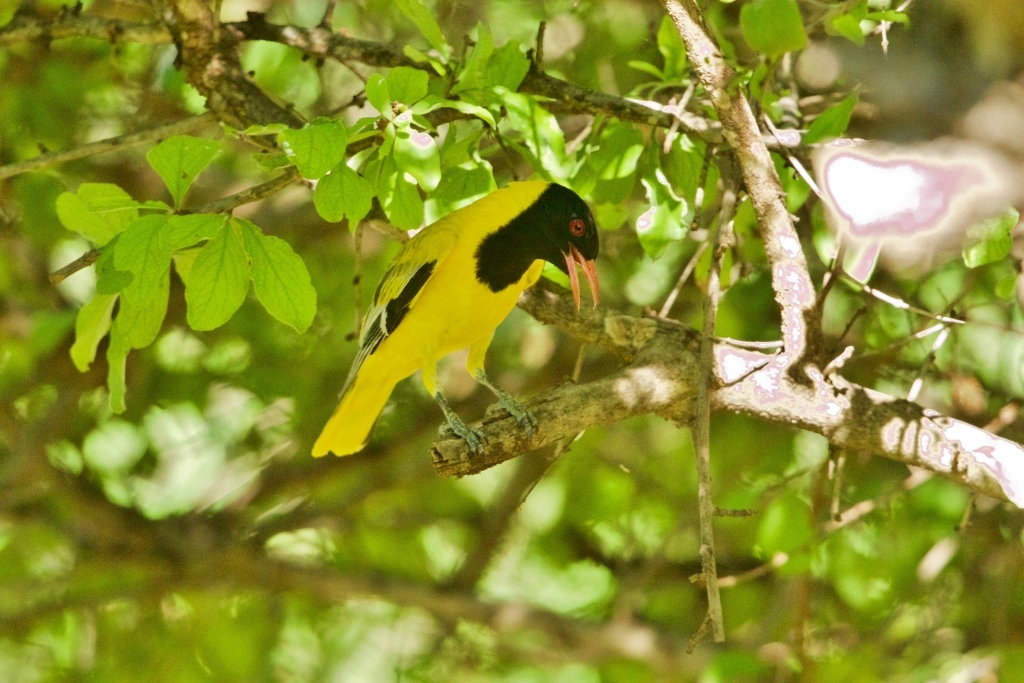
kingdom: Animalia
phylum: Chordata
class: Aves
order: Passeriformes
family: Oriolidae
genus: Oriolus
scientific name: Oriolus larvatus
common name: Black-headed oriole
